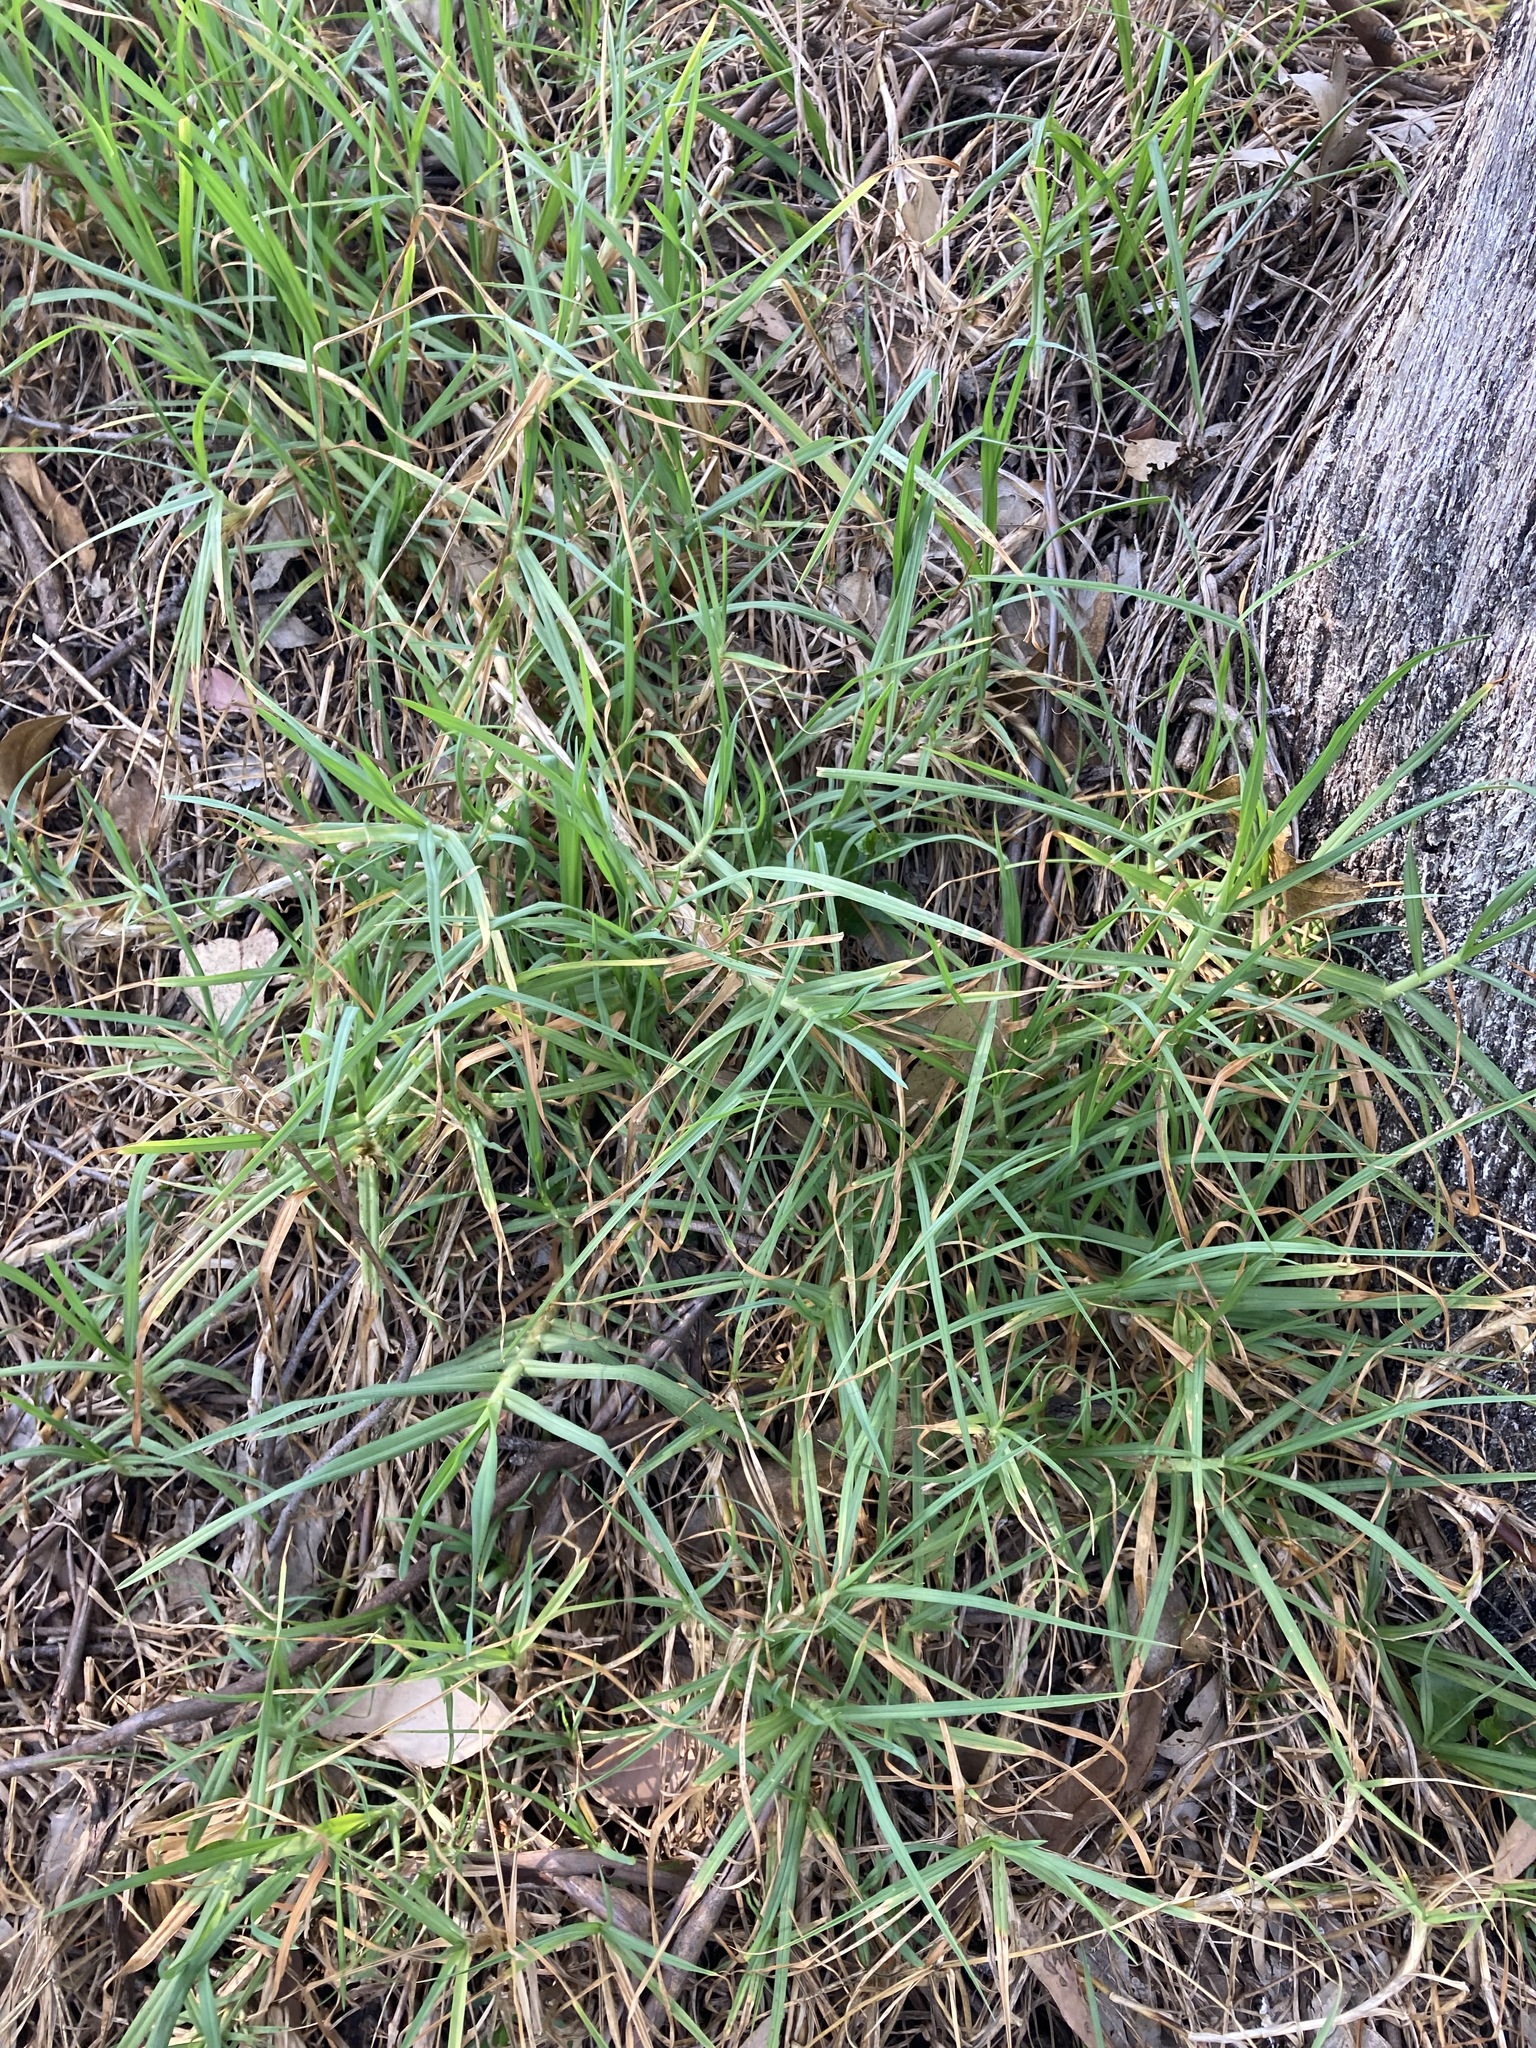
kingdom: Plantae
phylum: Tracheophyta
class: Liliopsida
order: Poales
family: Poaceae
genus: Cenchrus
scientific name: Cenchrus clandestinus
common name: Kikuyugrass
